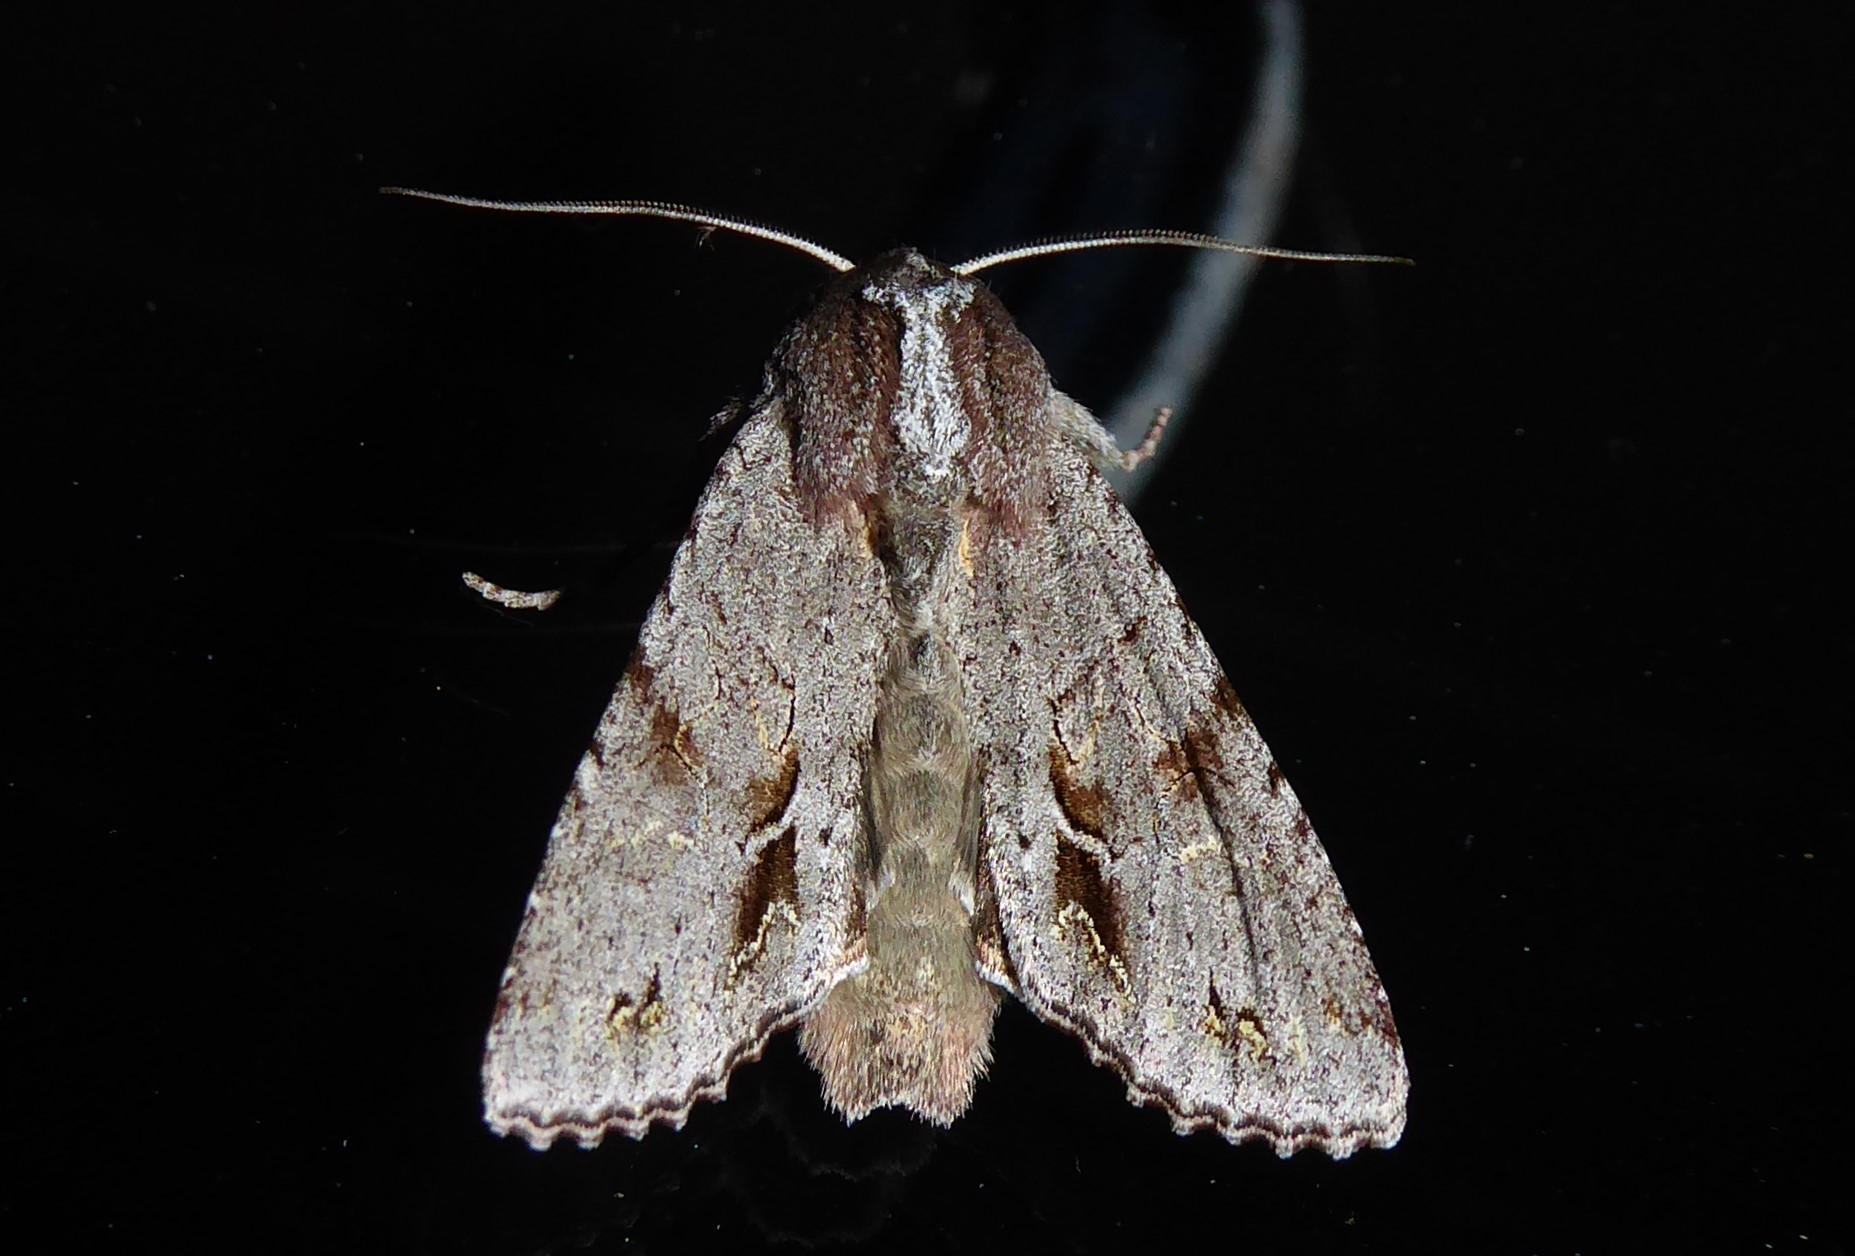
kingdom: Animalia
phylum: Arthropoda
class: Insecta
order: Lepidoptera
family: Noctuidae
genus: Ichneutica
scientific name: Ichneutica
